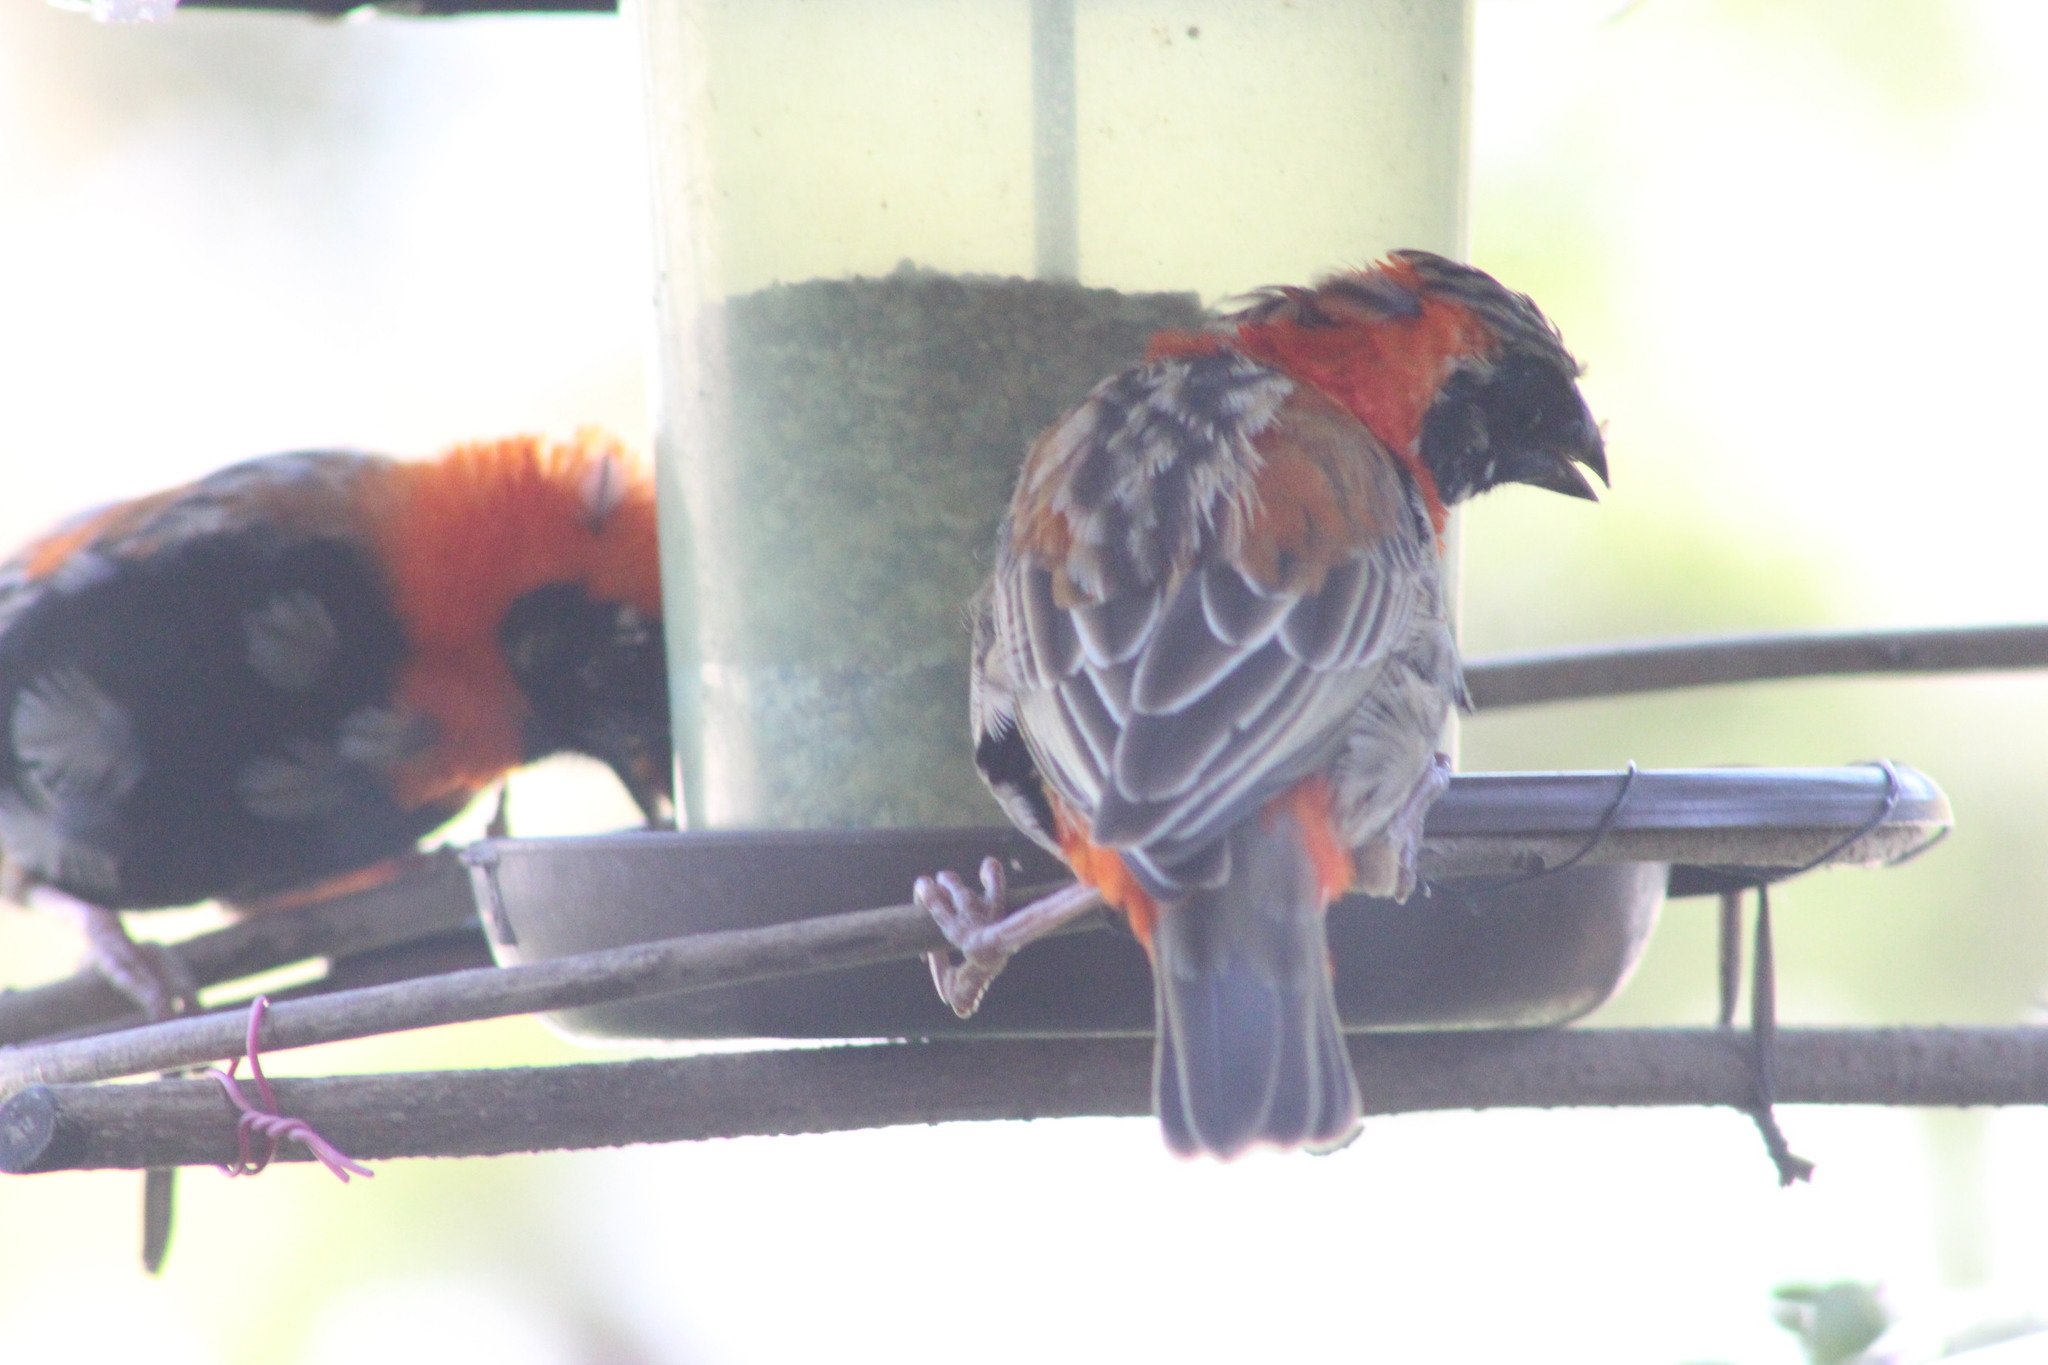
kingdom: Animalia
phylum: Chordata
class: Aves
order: Passeriformes
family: Ploceidae
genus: Euplectes
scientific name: Euplectes orix
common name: Southern red bishop
